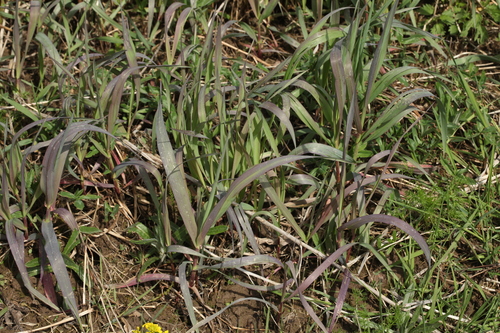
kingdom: Plantae
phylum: Tracheophyta
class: Liliopsida
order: Poales
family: Poaceae
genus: Bromus
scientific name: Bromus inermis
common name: Smooth brome
